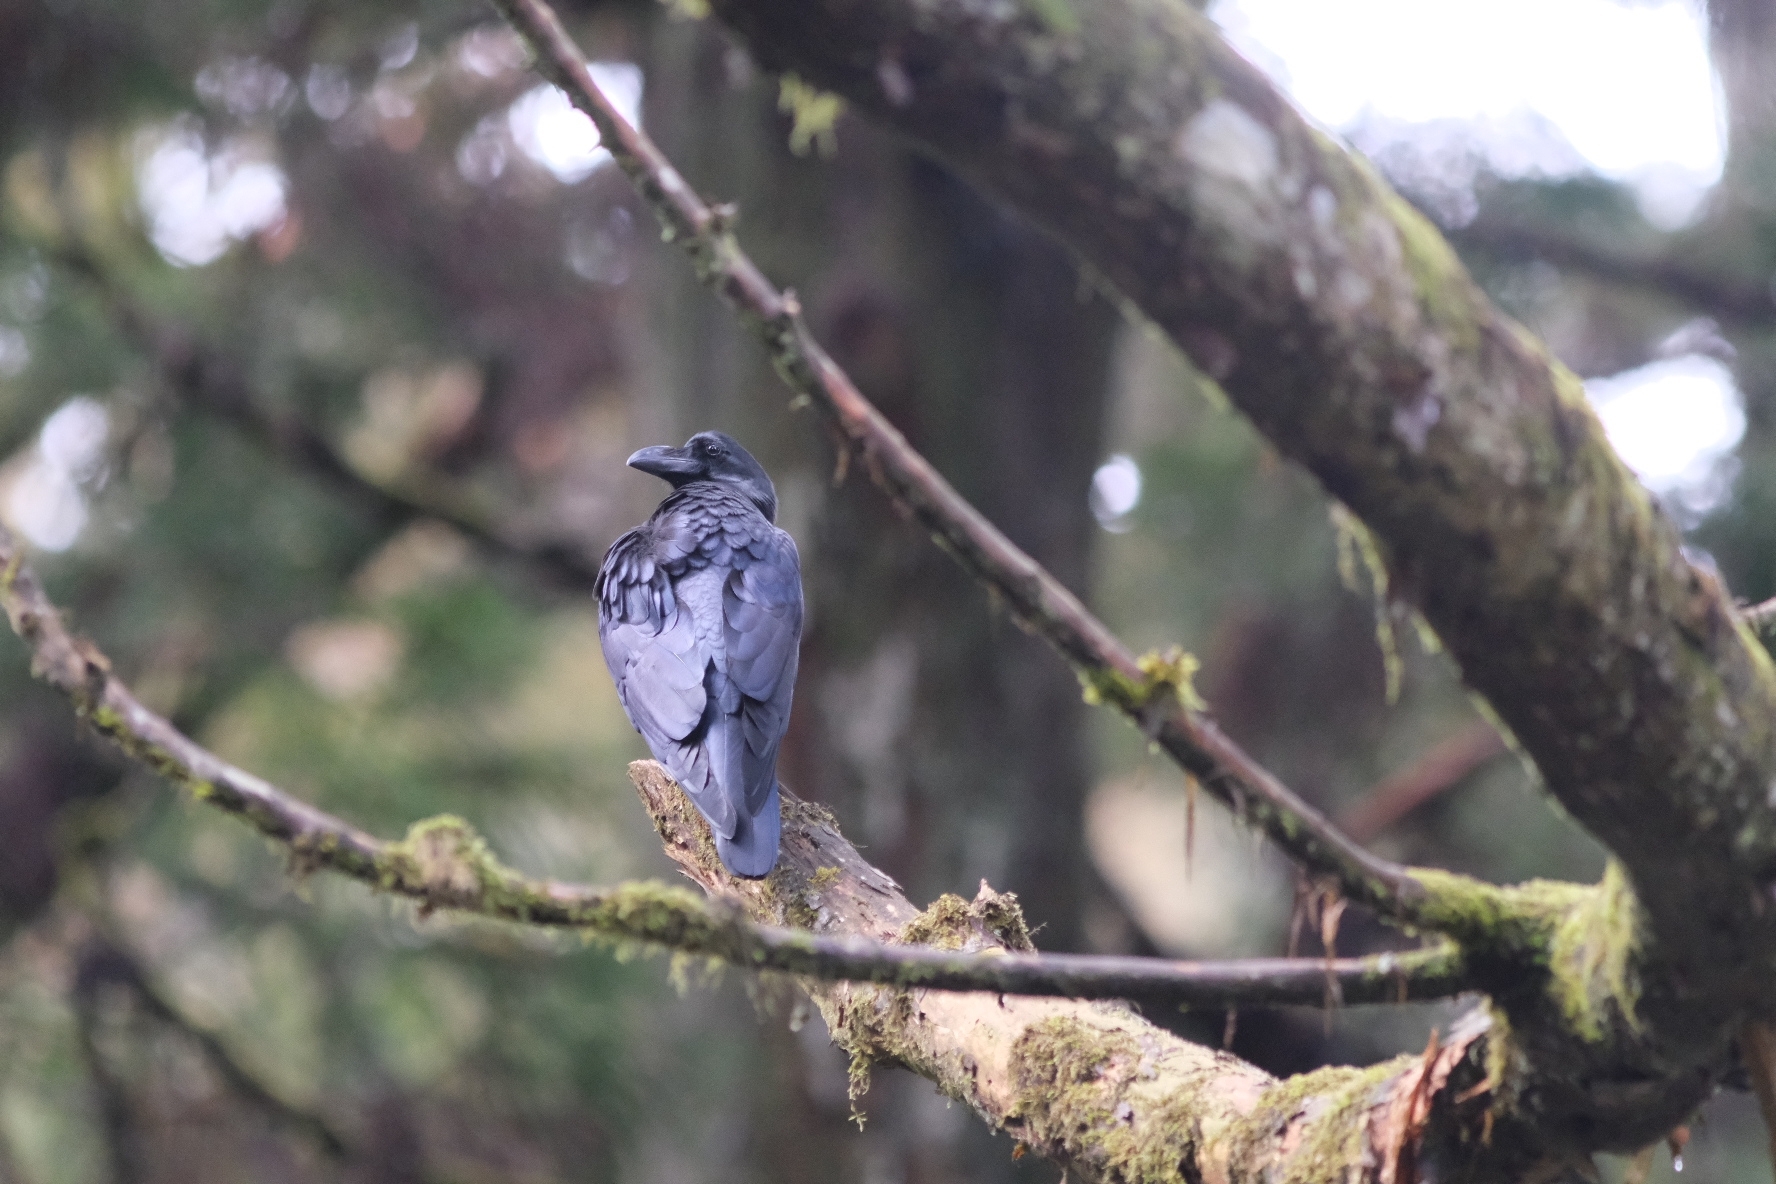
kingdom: Animalia
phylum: Chordata
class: Aves
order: Passeriformes
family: Corvidae
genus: Corvus
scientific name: Corvus macrorhynchos
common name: Large-billed crow
